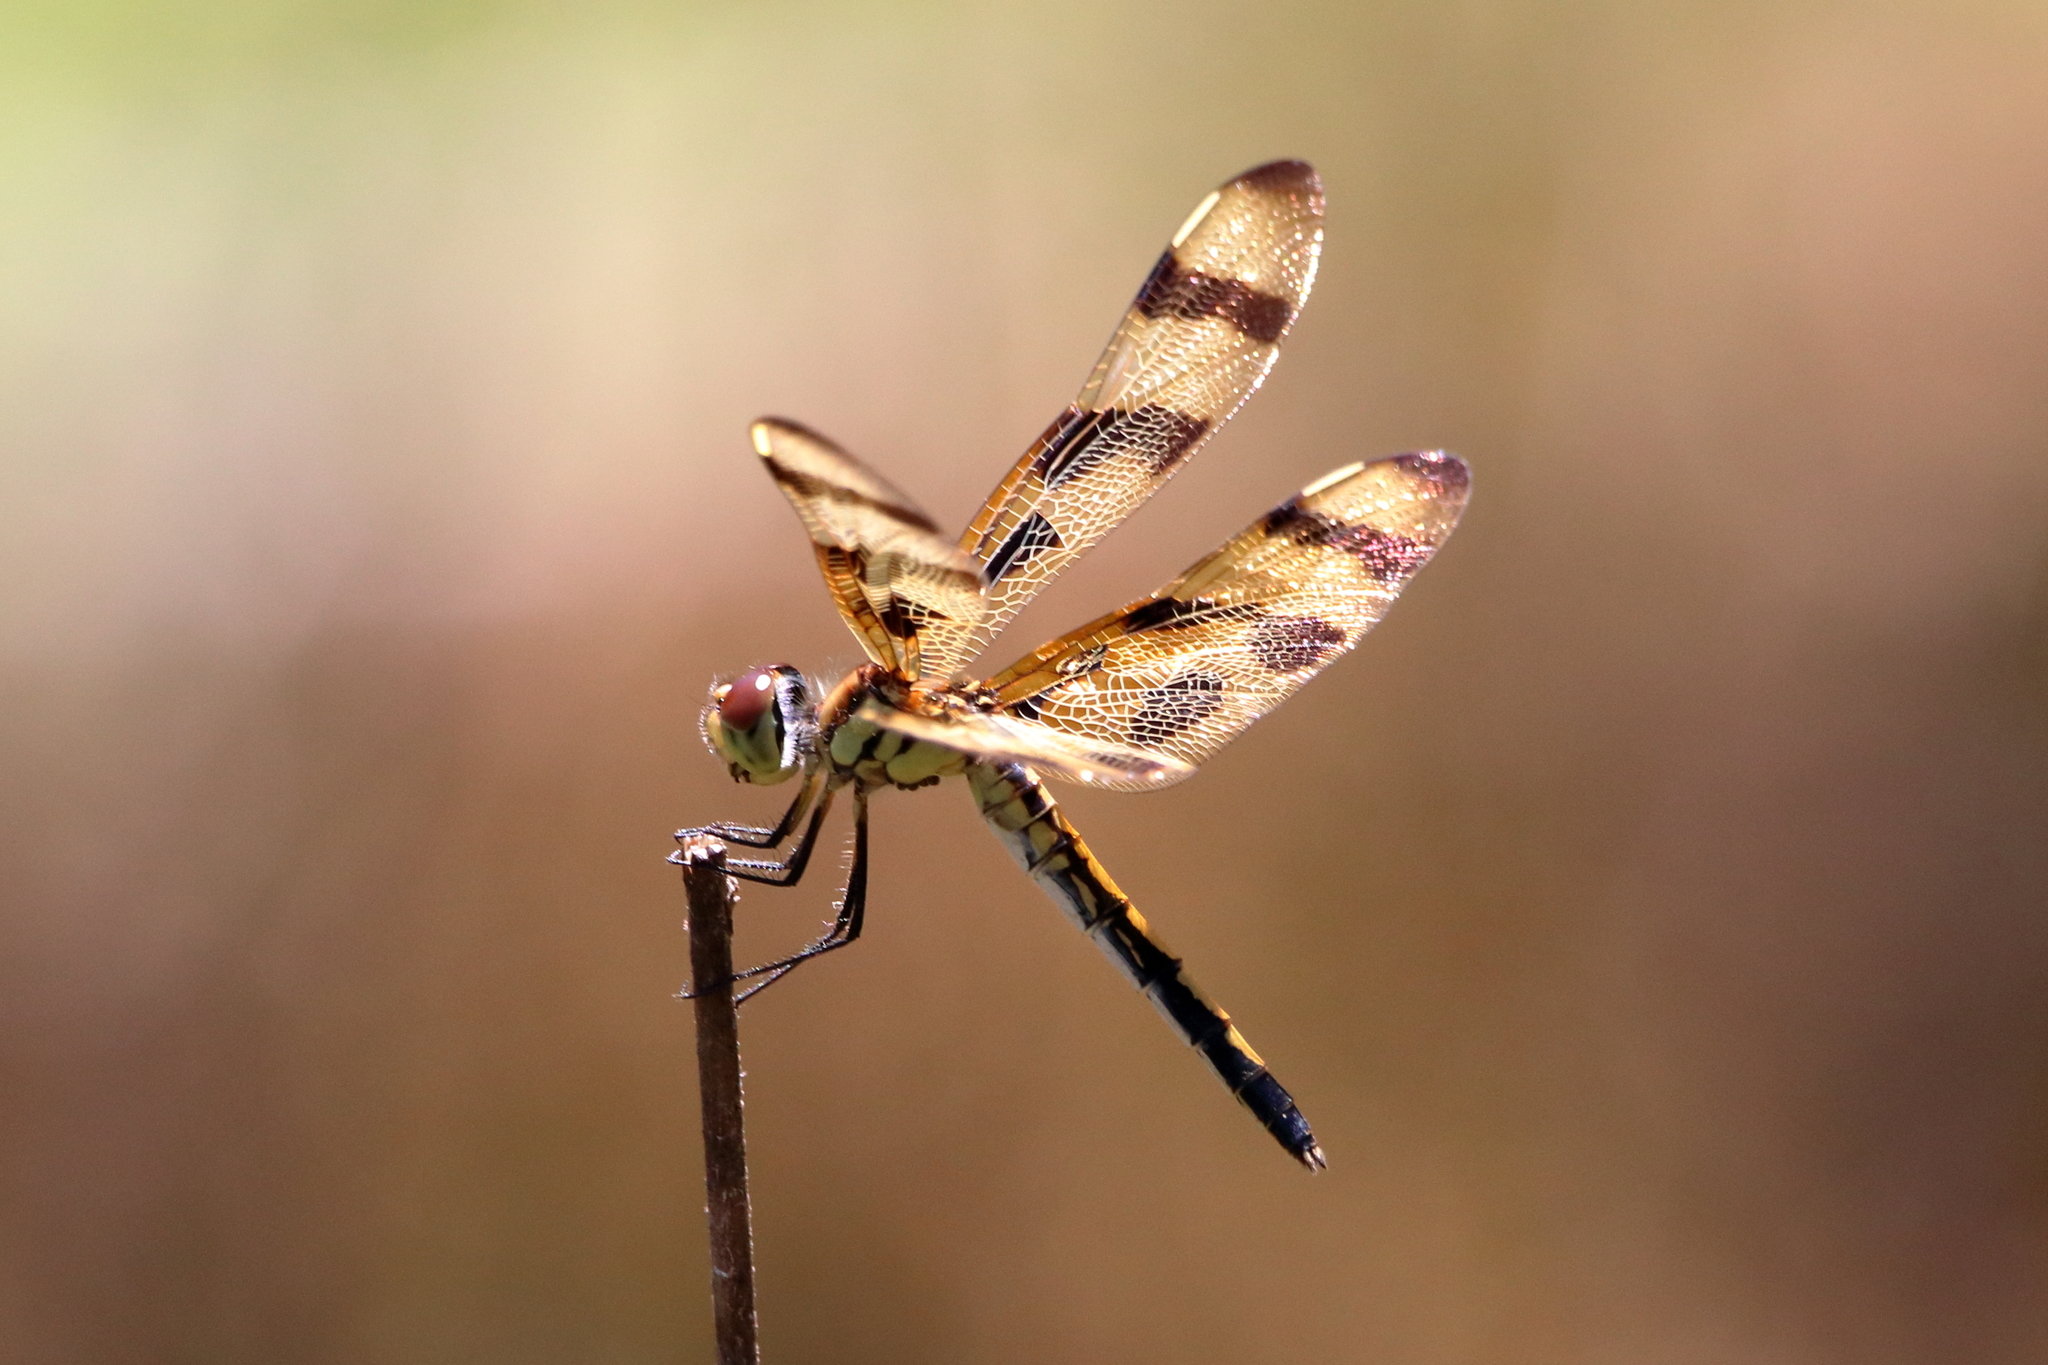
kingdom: Animalia
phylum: Arthropoda
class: Insecta
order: Odonata
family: Libellulidae
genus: Celithemis
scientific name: Celithemis eponina
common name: Halloween pennant
